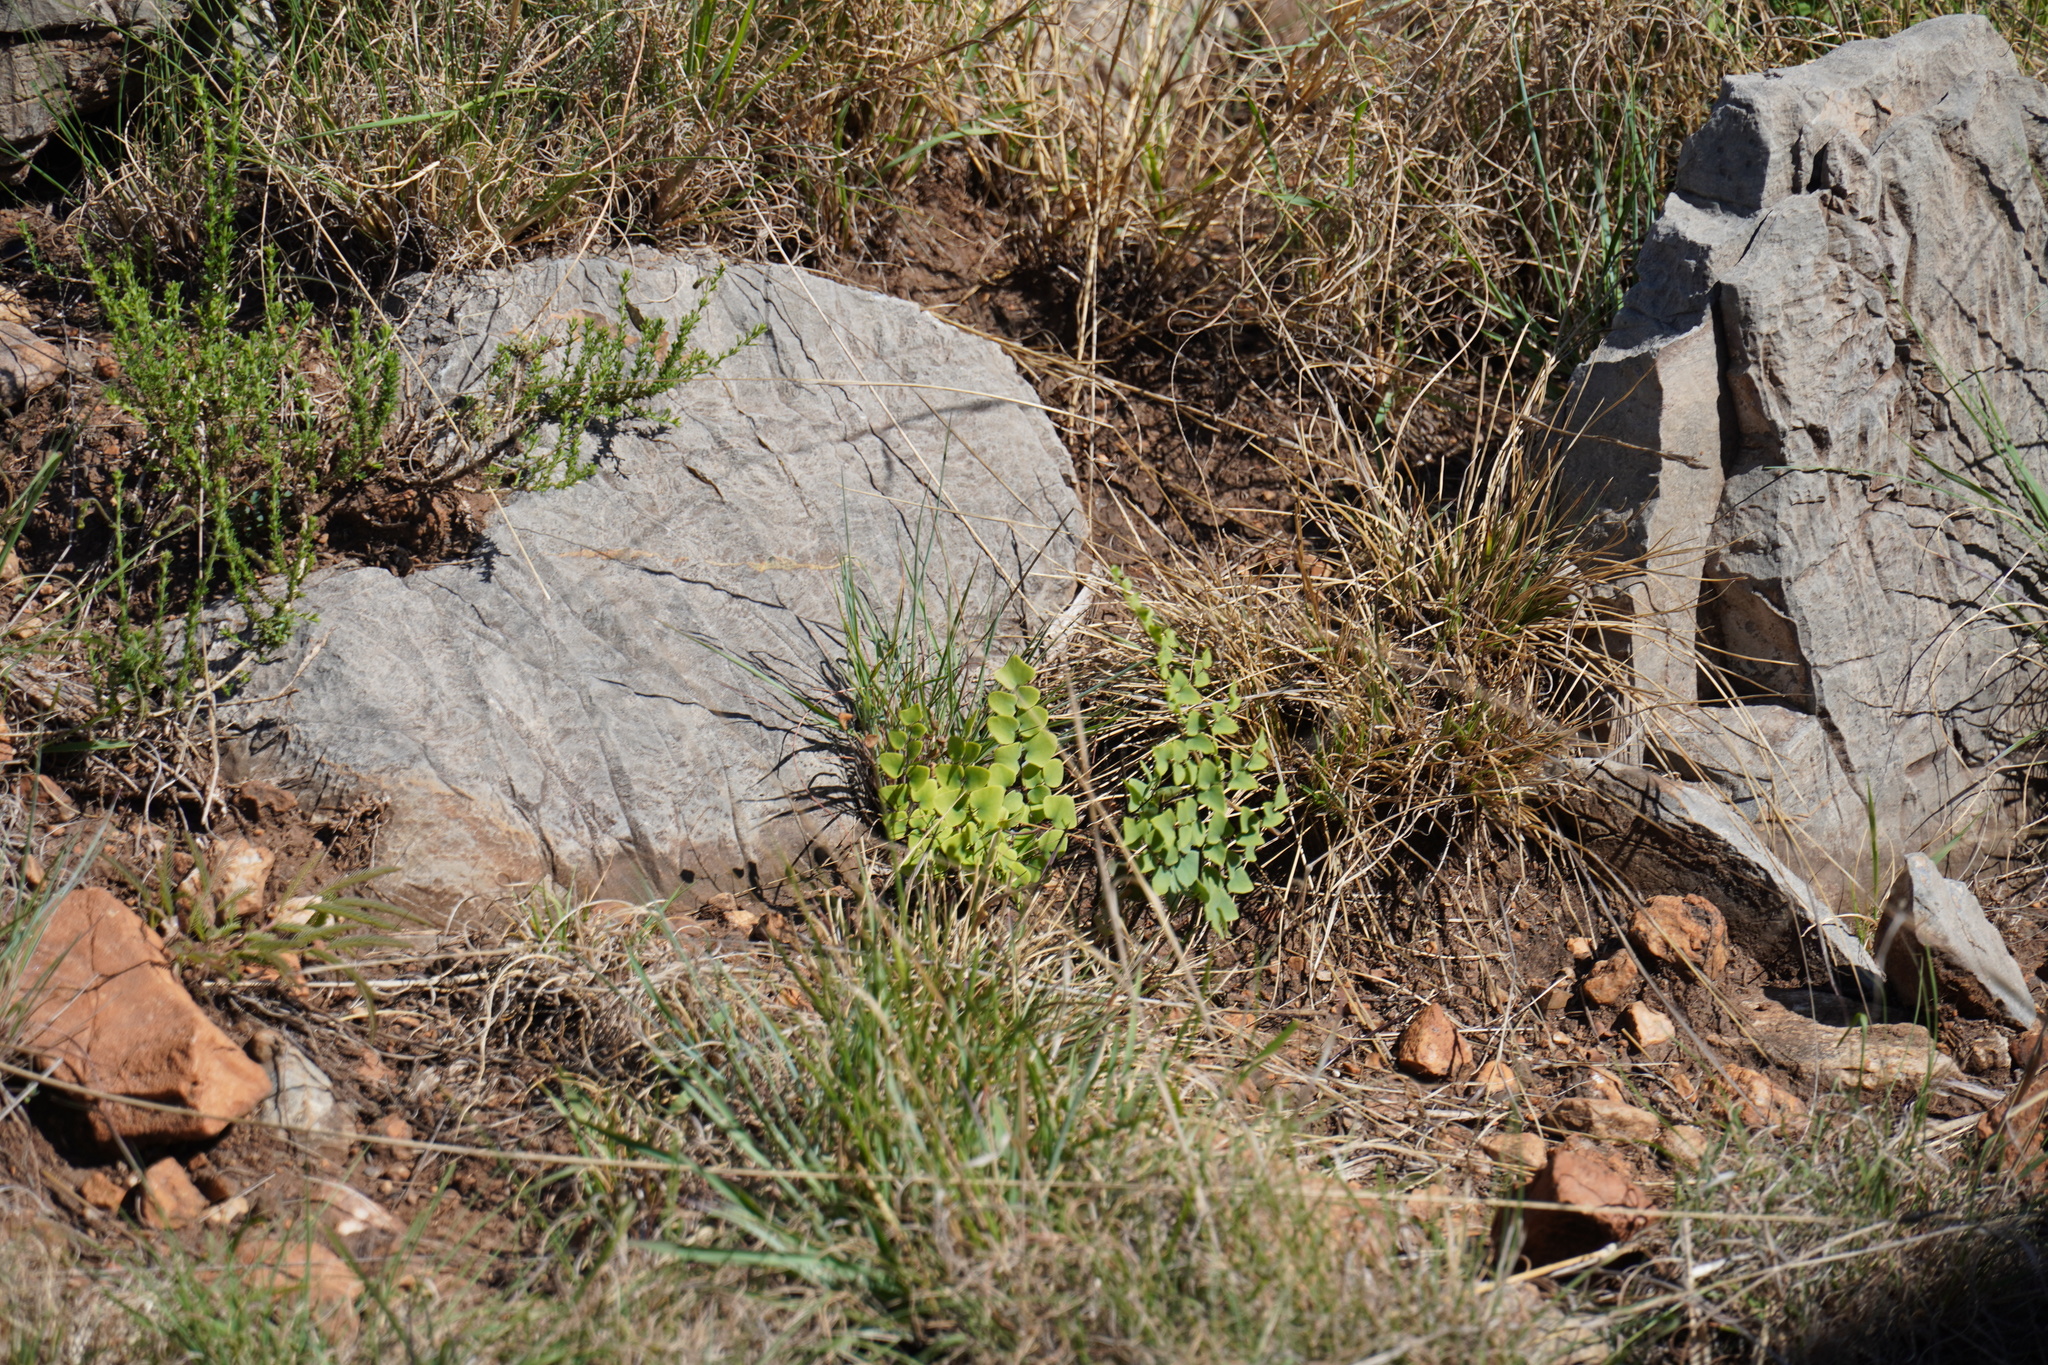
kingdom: Plantae
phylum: Tracheophyta
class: Polypodiopsida
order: Polypodiales
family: Pteridaceae
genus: Pellaea
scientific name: Pellaea calomelanos
